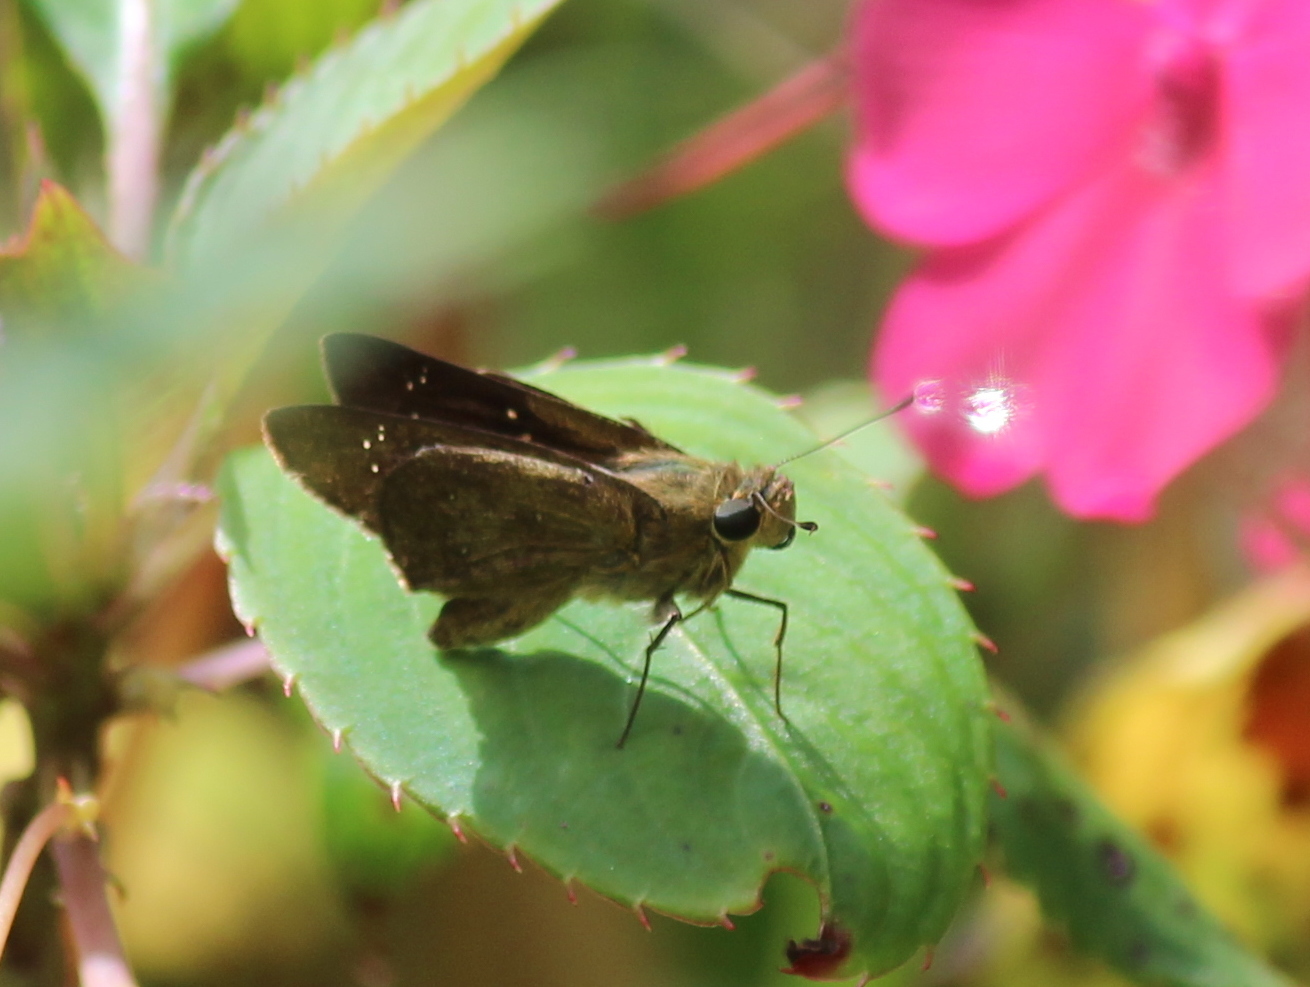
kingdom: Animalia
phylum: Arthropoda
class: Insecta
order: Lepidoptera
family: Hesperiidae
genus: Pelopidas
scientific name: Pelopidas agna
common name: Little branded swift
